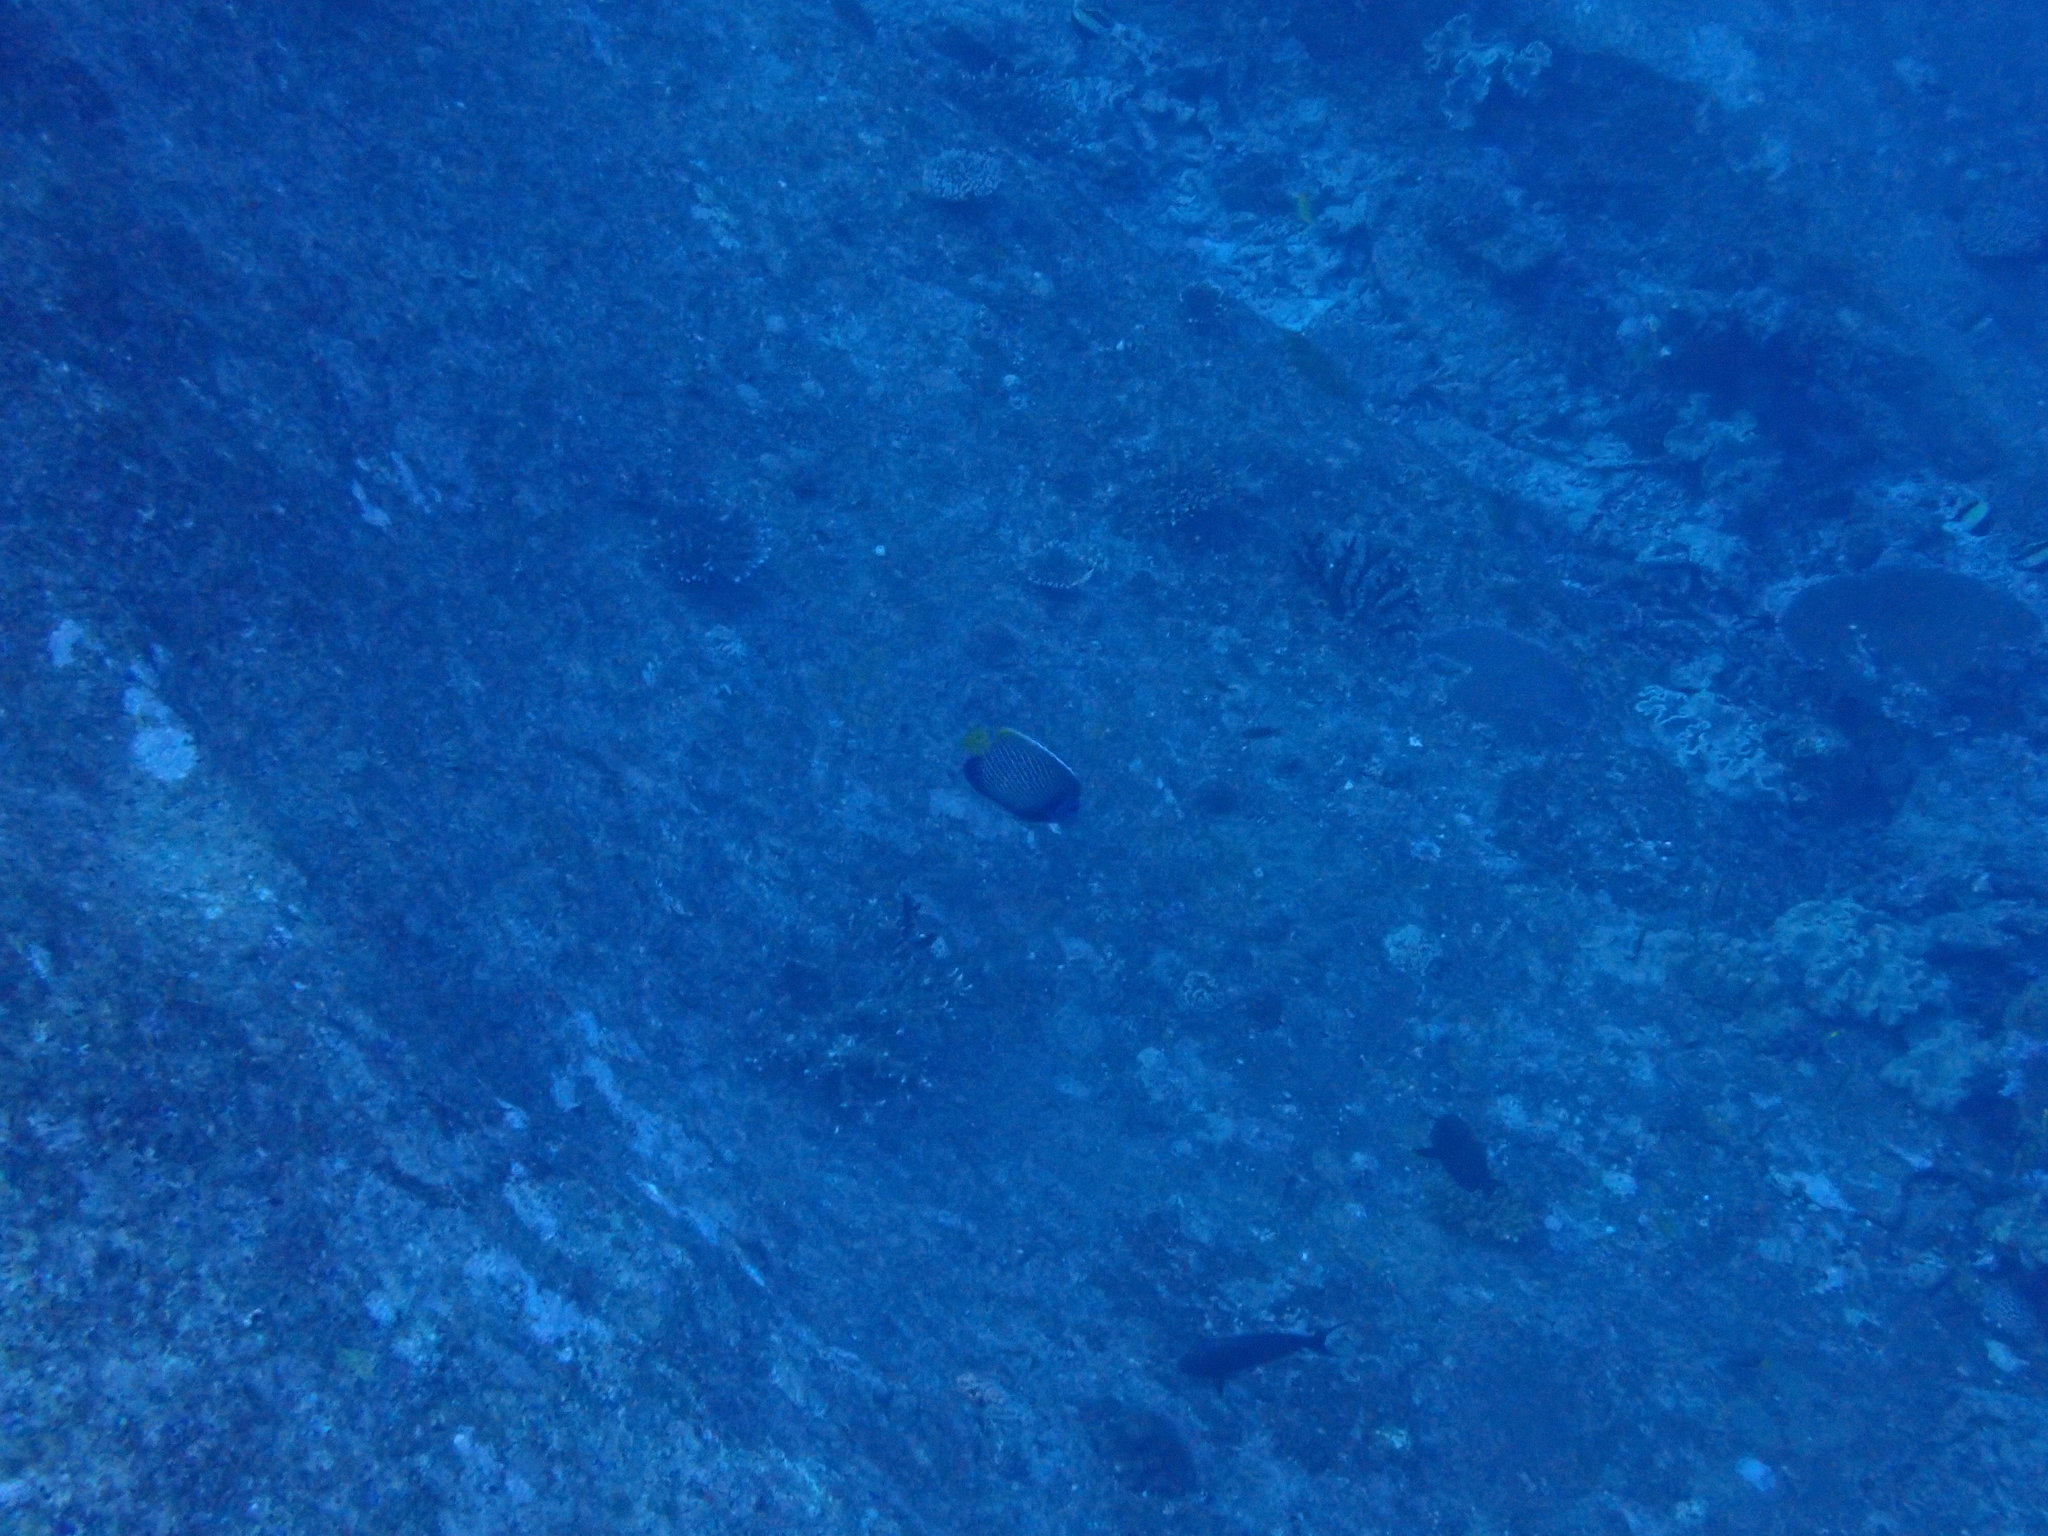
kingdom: Animalia
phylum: Chordata
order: Perciformes
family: Pomacanthidae
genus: Pomacanthus
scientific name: Pomacanthus imperator
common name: Emperor angelfish
